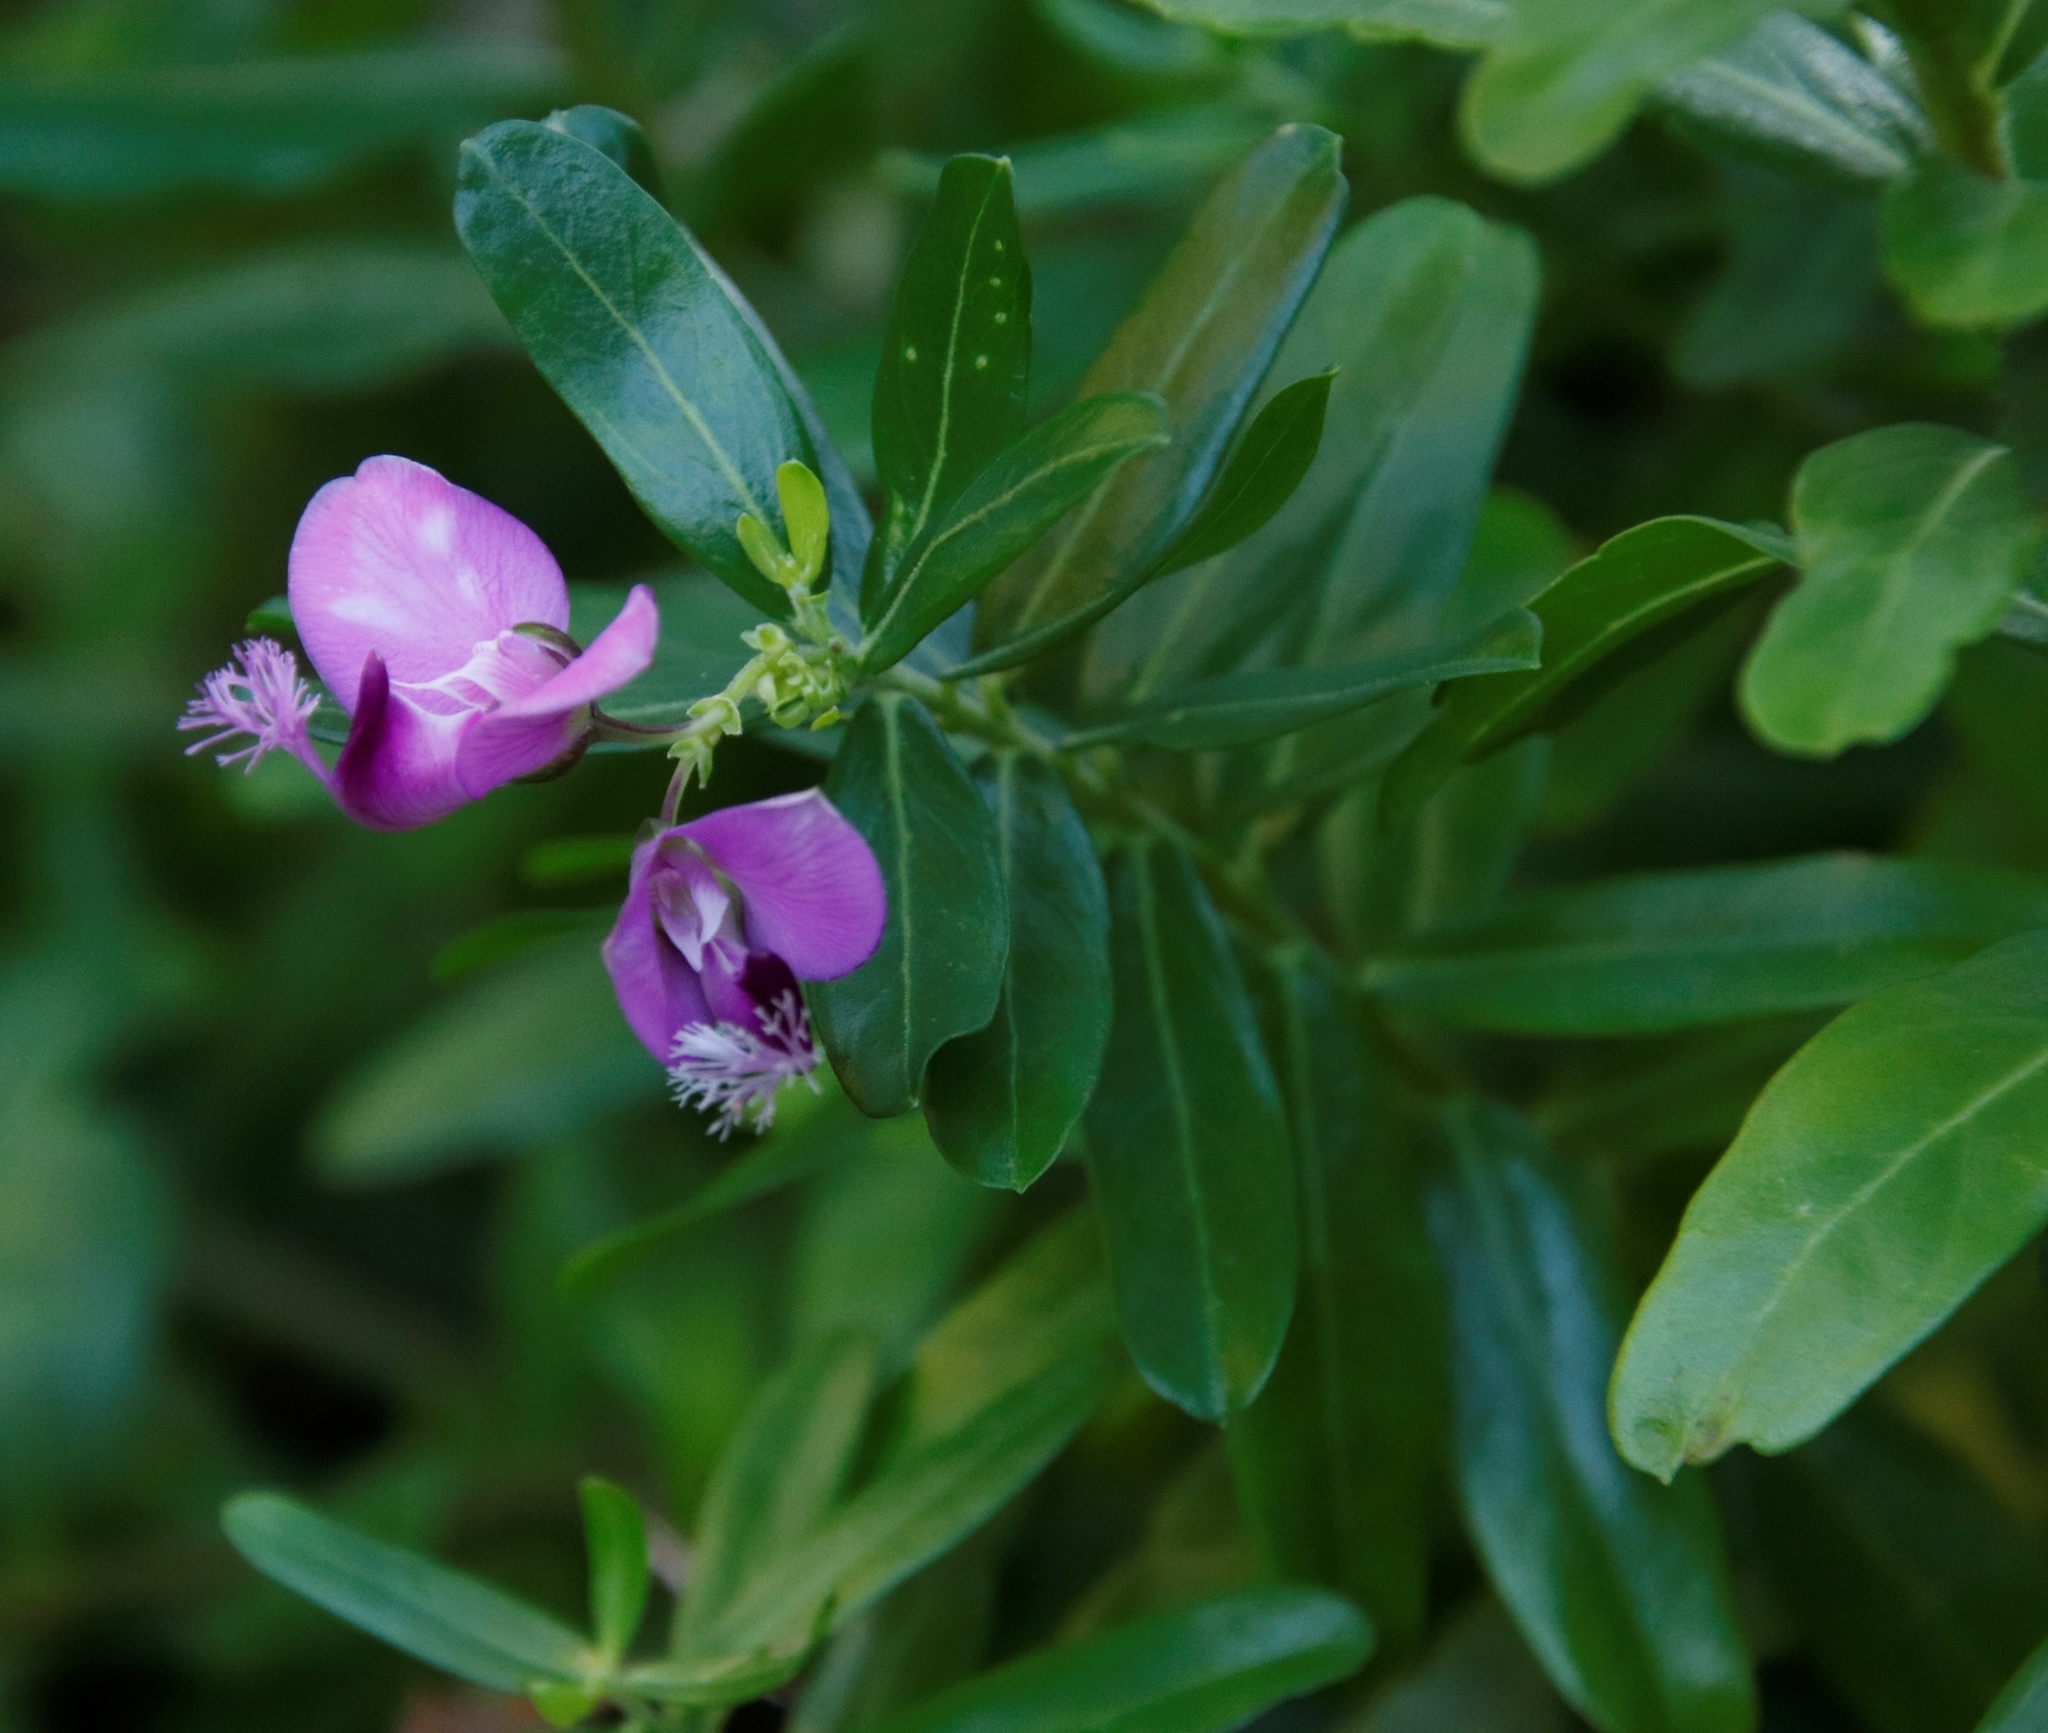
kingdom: Plantae
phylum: Tracheophyta
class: Magnoliopsida
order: Fabales
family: Polygalaceae
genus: Polygala
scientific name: Polygala myrtifolia
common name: Myrtle-leaf milkwort
